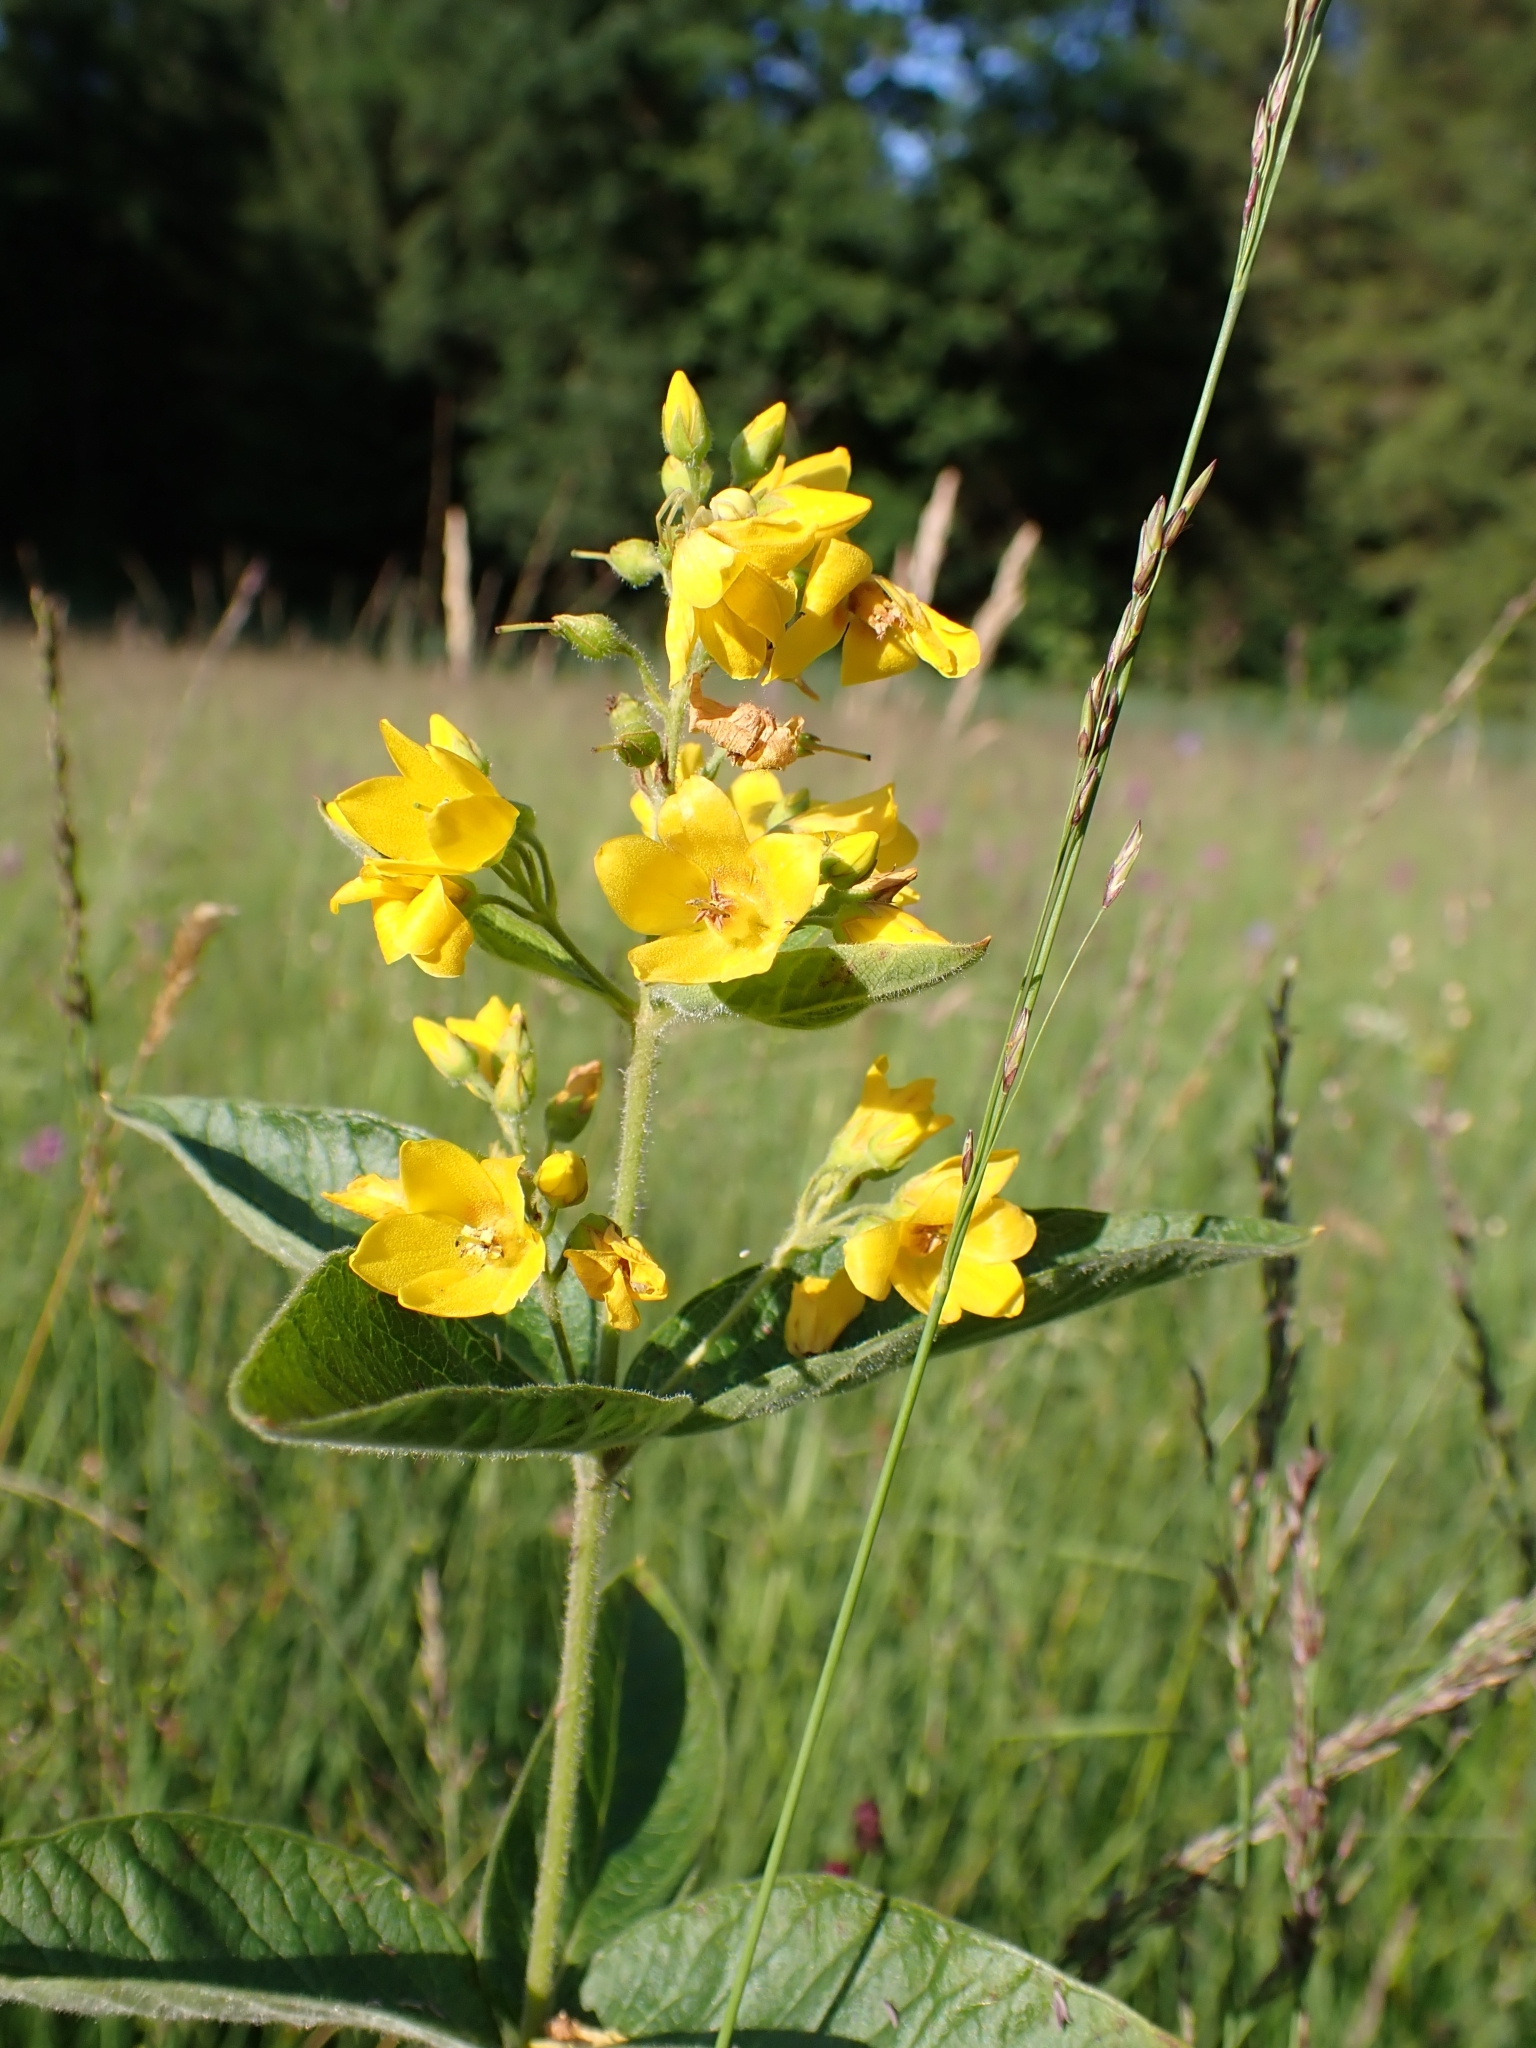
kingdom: Plantae
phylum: Tracheophyta
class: Magnoliopsida
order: Ericales
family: Primulaceae
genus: Lysimachia
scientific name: Lysimachia vulgaris
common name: Yellow loosestrife
